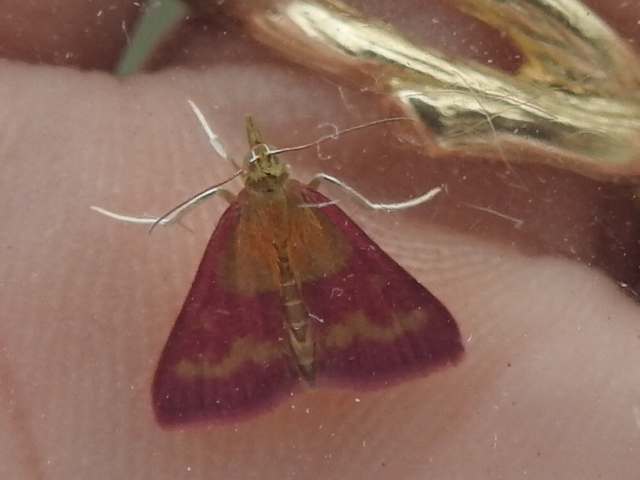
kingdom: Animalia
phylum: Arthropoda
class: Insecta
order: Lepidoptera
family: Crambidae
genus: Pyrausta
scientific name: Pyrausta laticlavia
